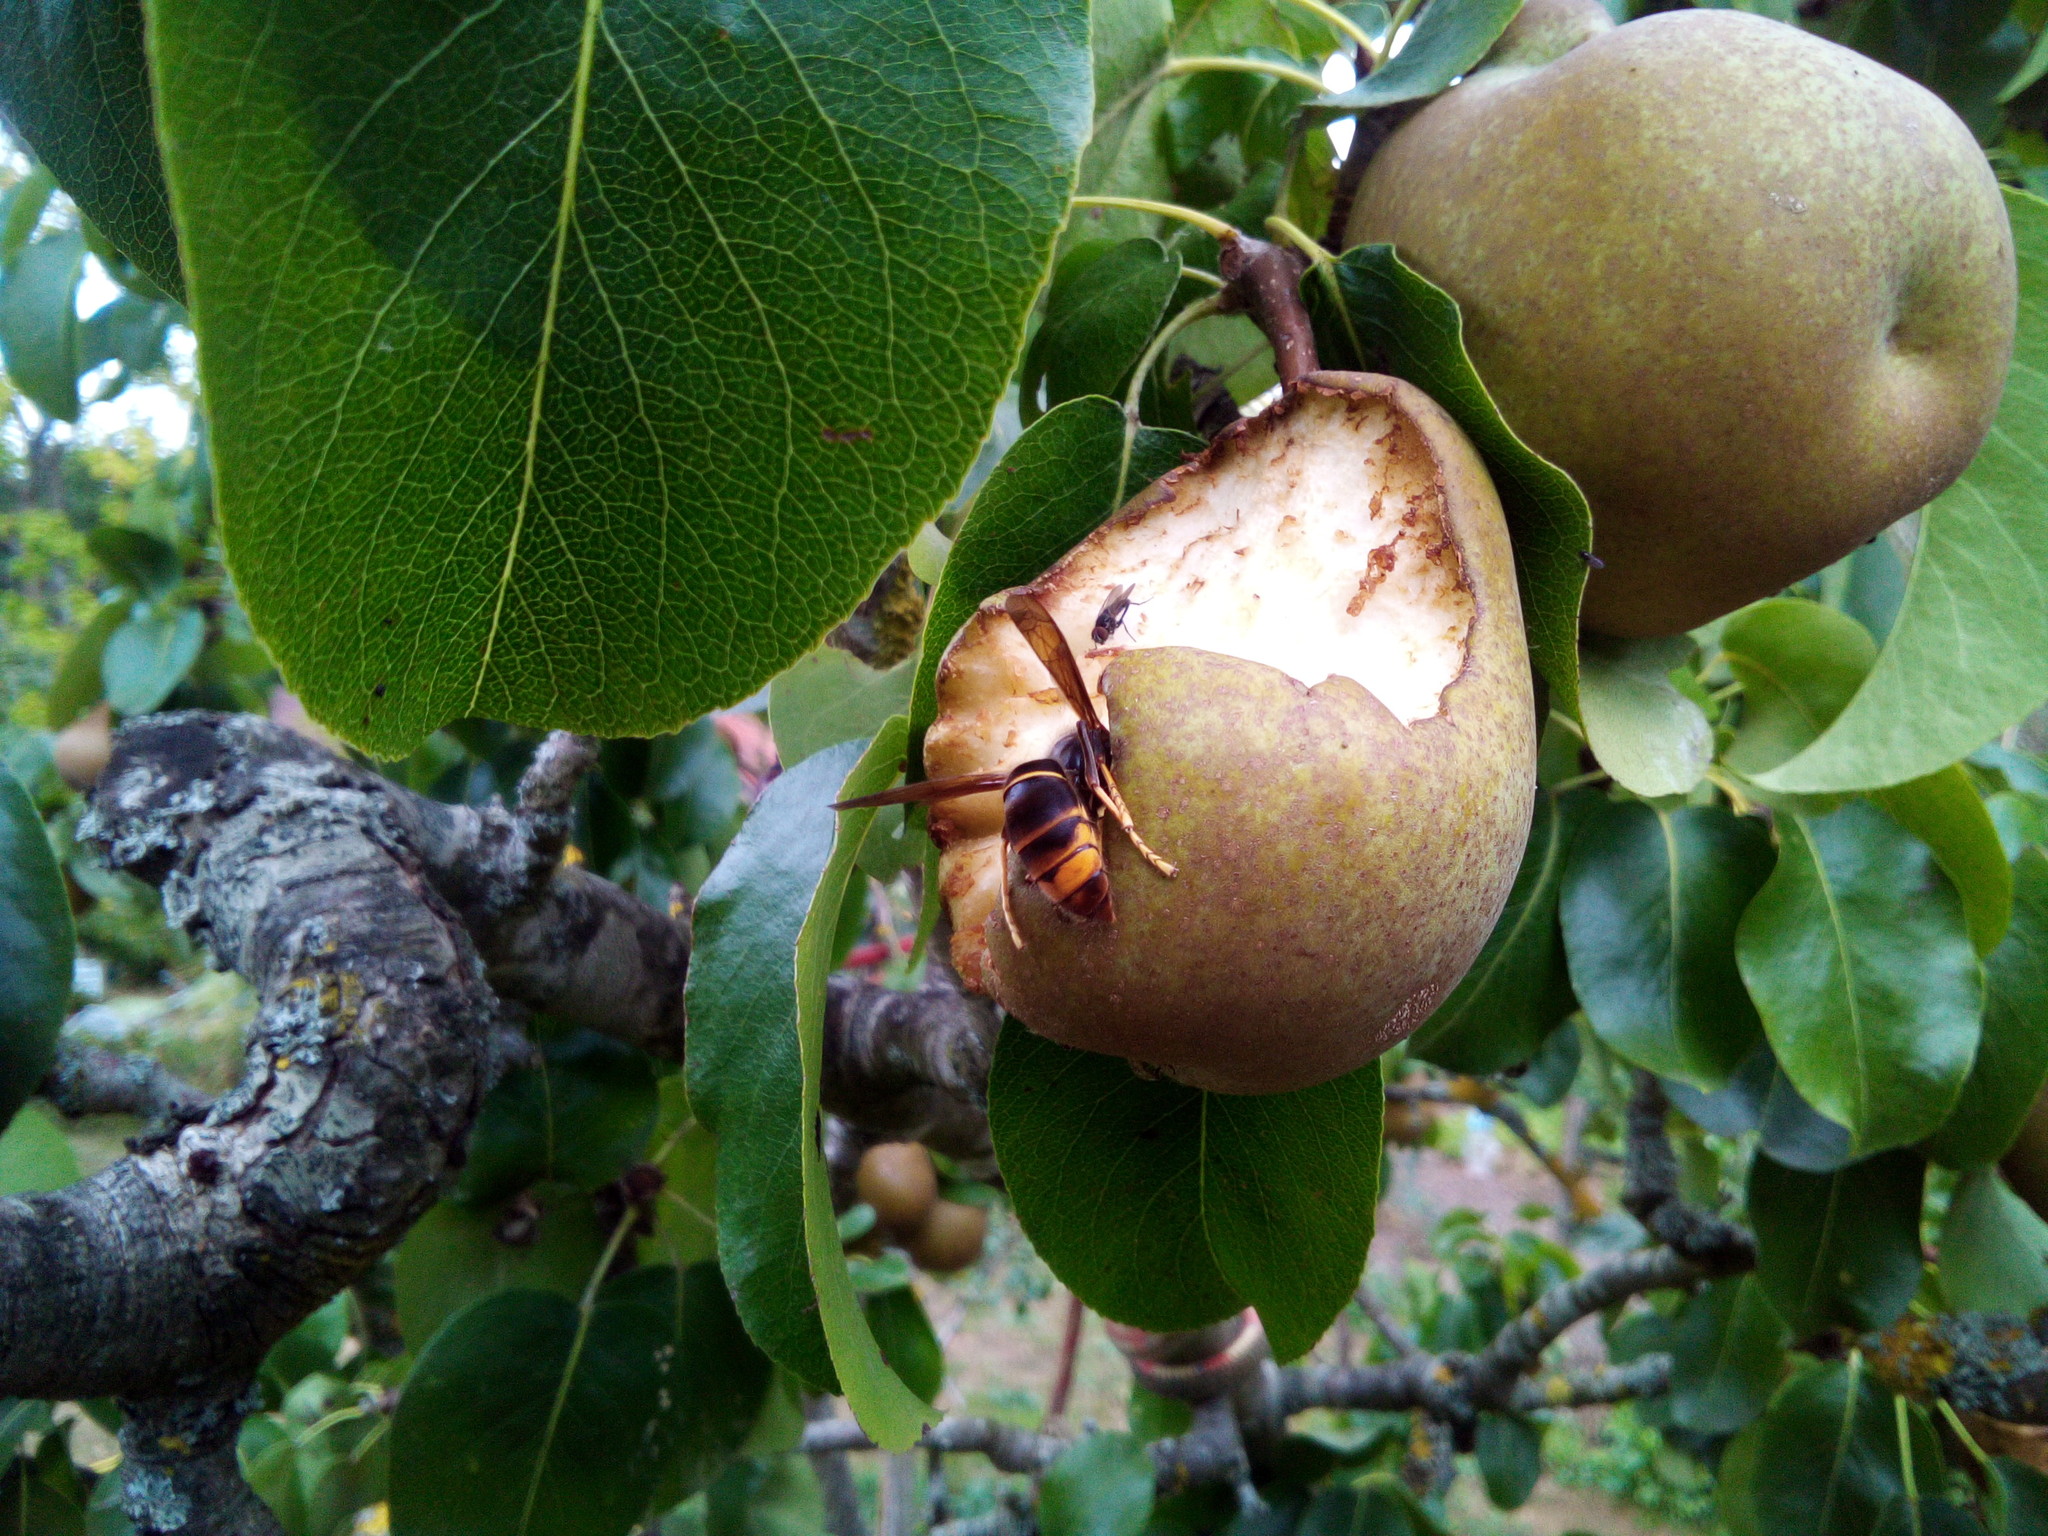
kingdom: Animalia
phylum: Arthropoda
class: Insecta
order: Hymenoptera
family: Vespidae
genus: Vespa
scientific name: Vespa velutina
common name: Asian hornet
